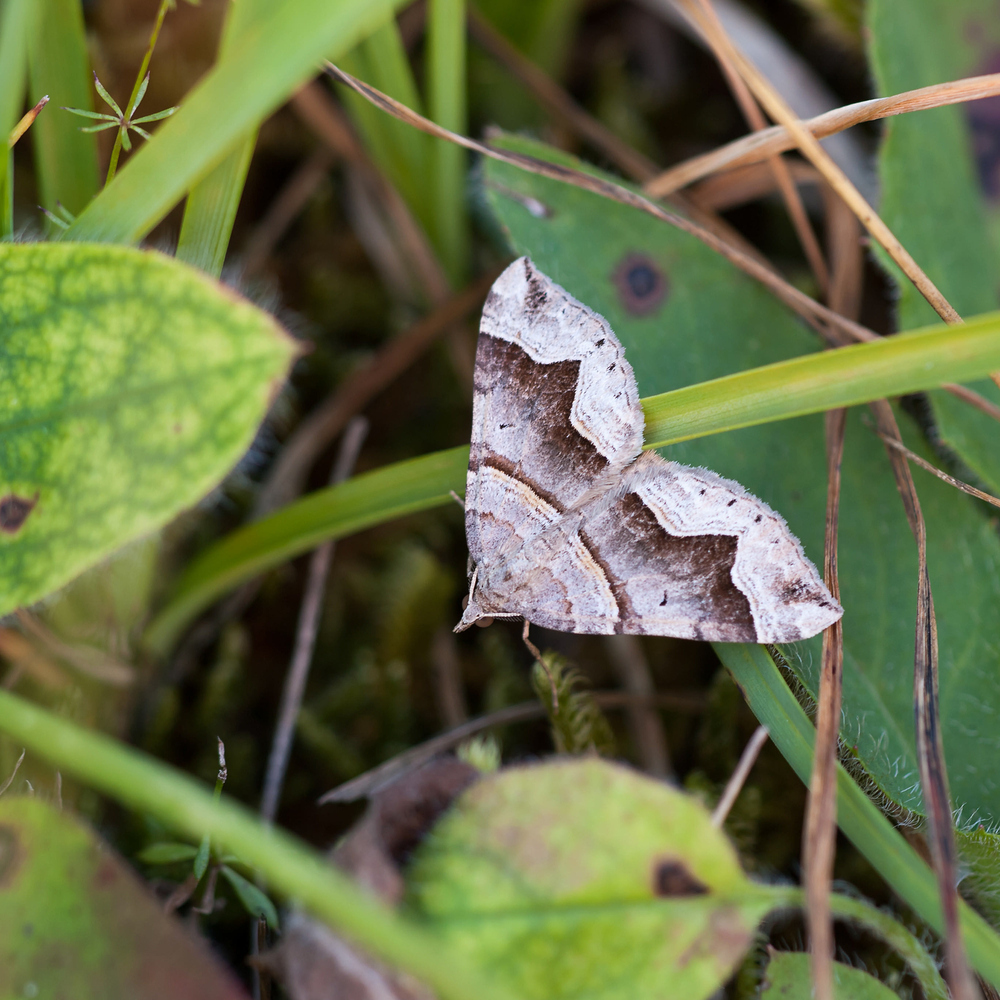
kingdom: Animalia
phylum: Arthropoda
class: Insecta
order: Lepidoptera
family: Geometridae
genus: Scotopteryx
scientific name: Scotopteryx moeniata
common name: Fortified carpet
